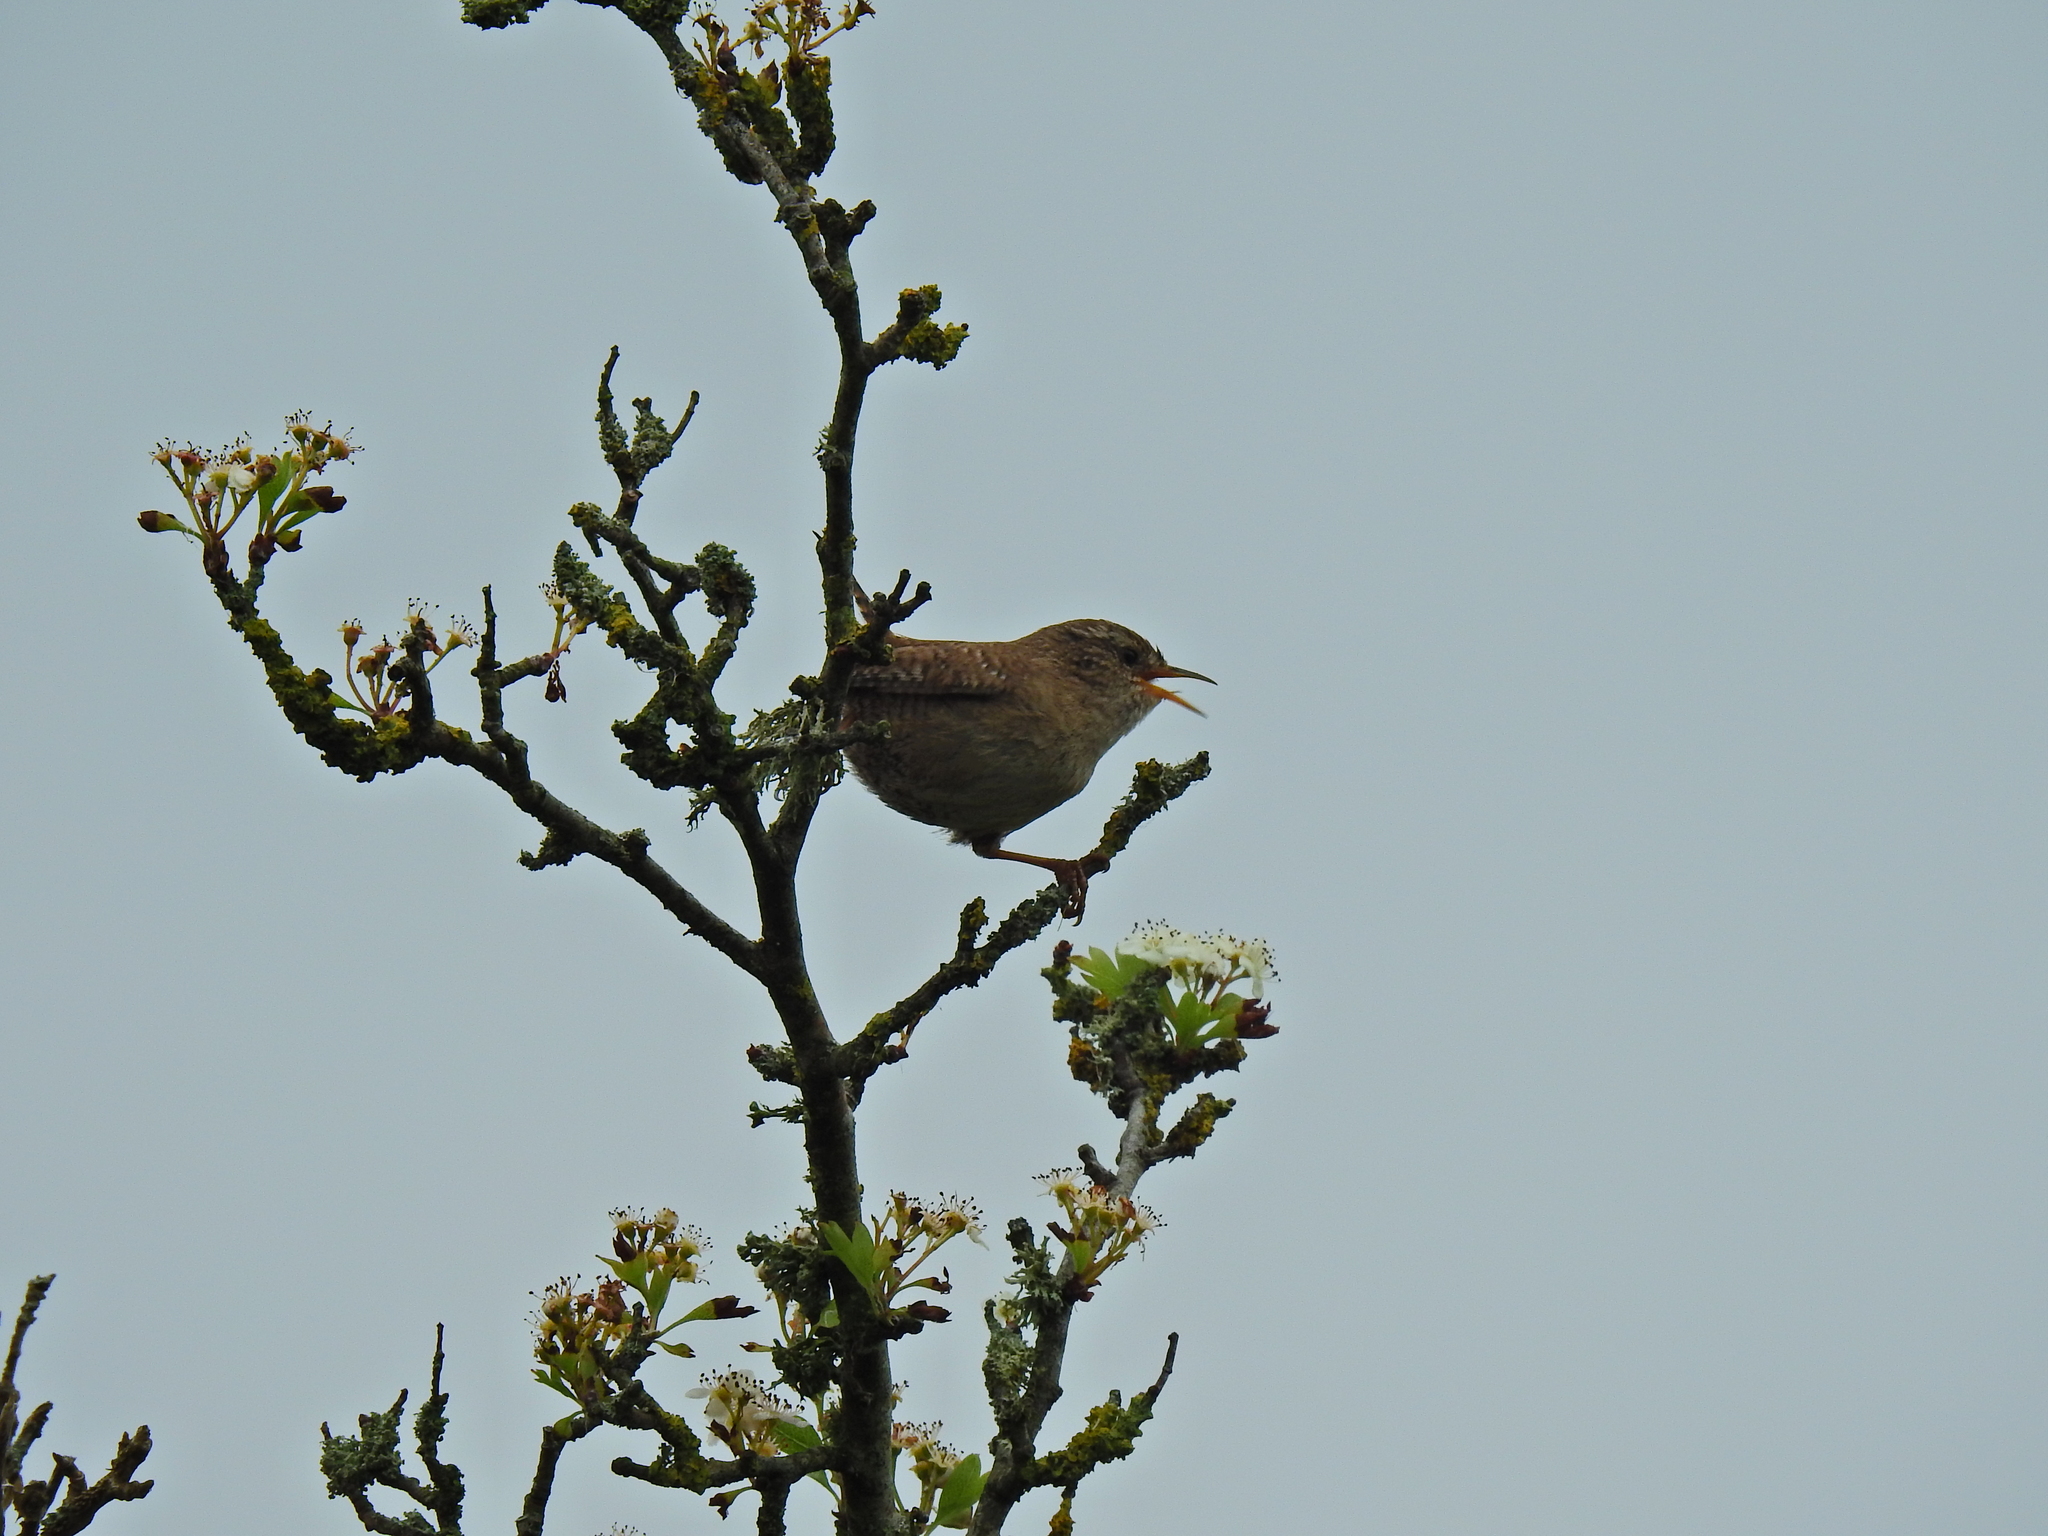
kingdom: Animalia
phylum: Chordata
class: Aves
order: Passeriformes
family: Troglodytidae
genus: Troglodytes
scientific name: Troglodytes troglodytes
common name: Eurasian wren
